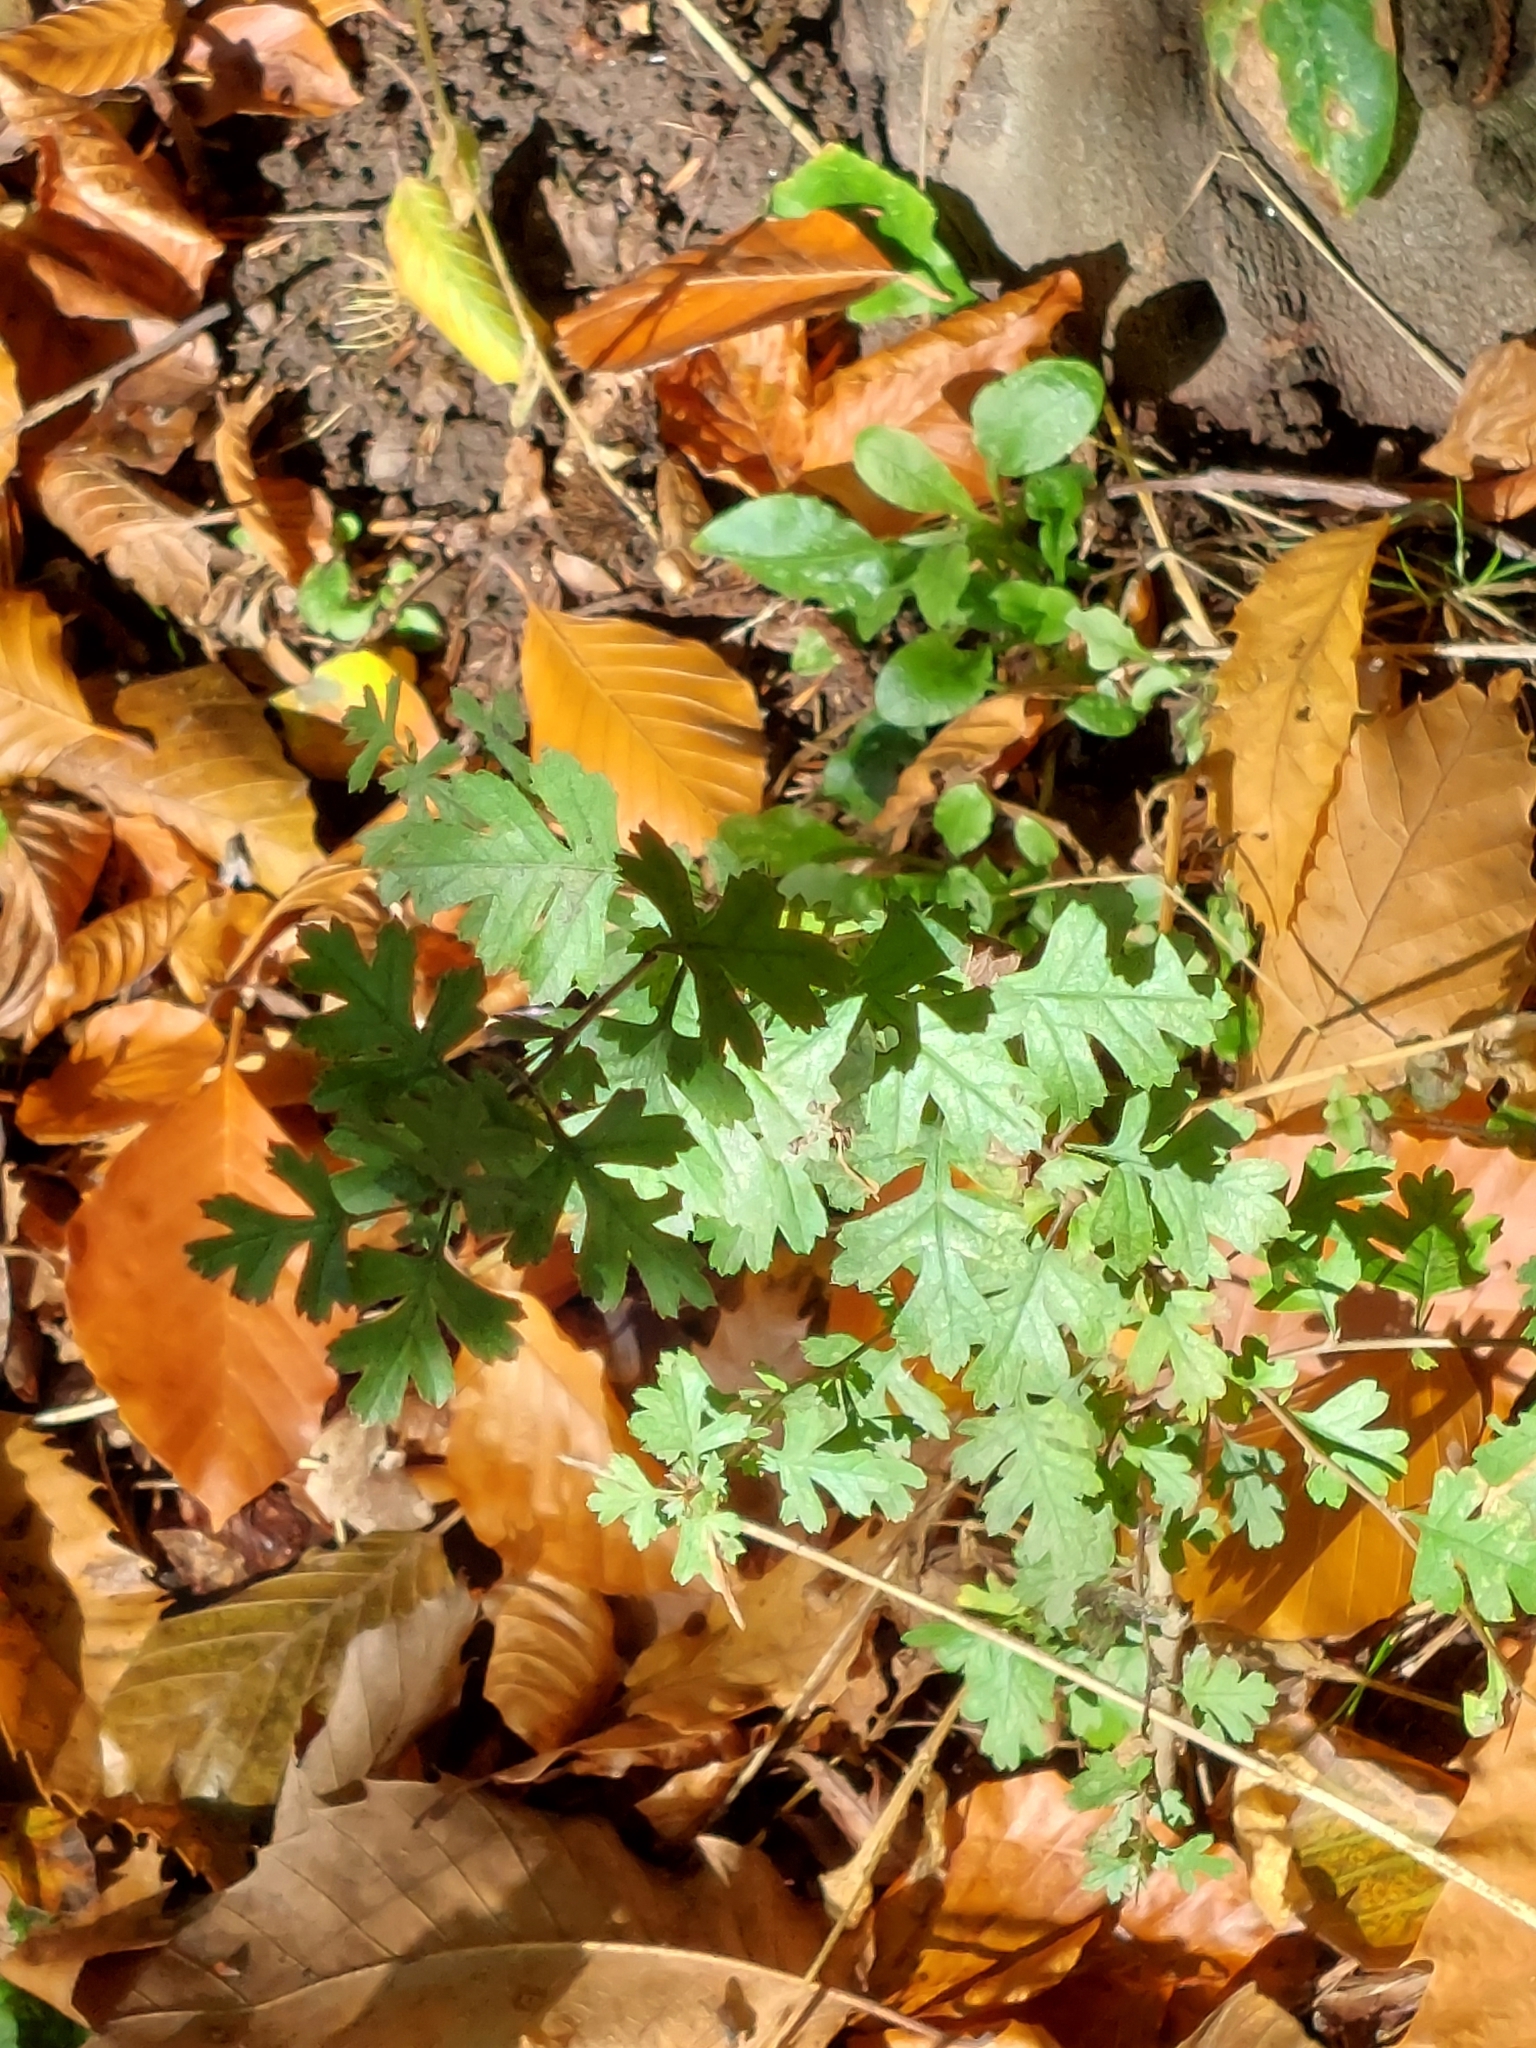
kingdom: Plantae
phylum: Tracheophyta
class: Magnoliopsida
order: Rosales
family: Rosaceae
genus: Crataegus
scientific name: Crataegus monogyna
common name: Hawthorn
